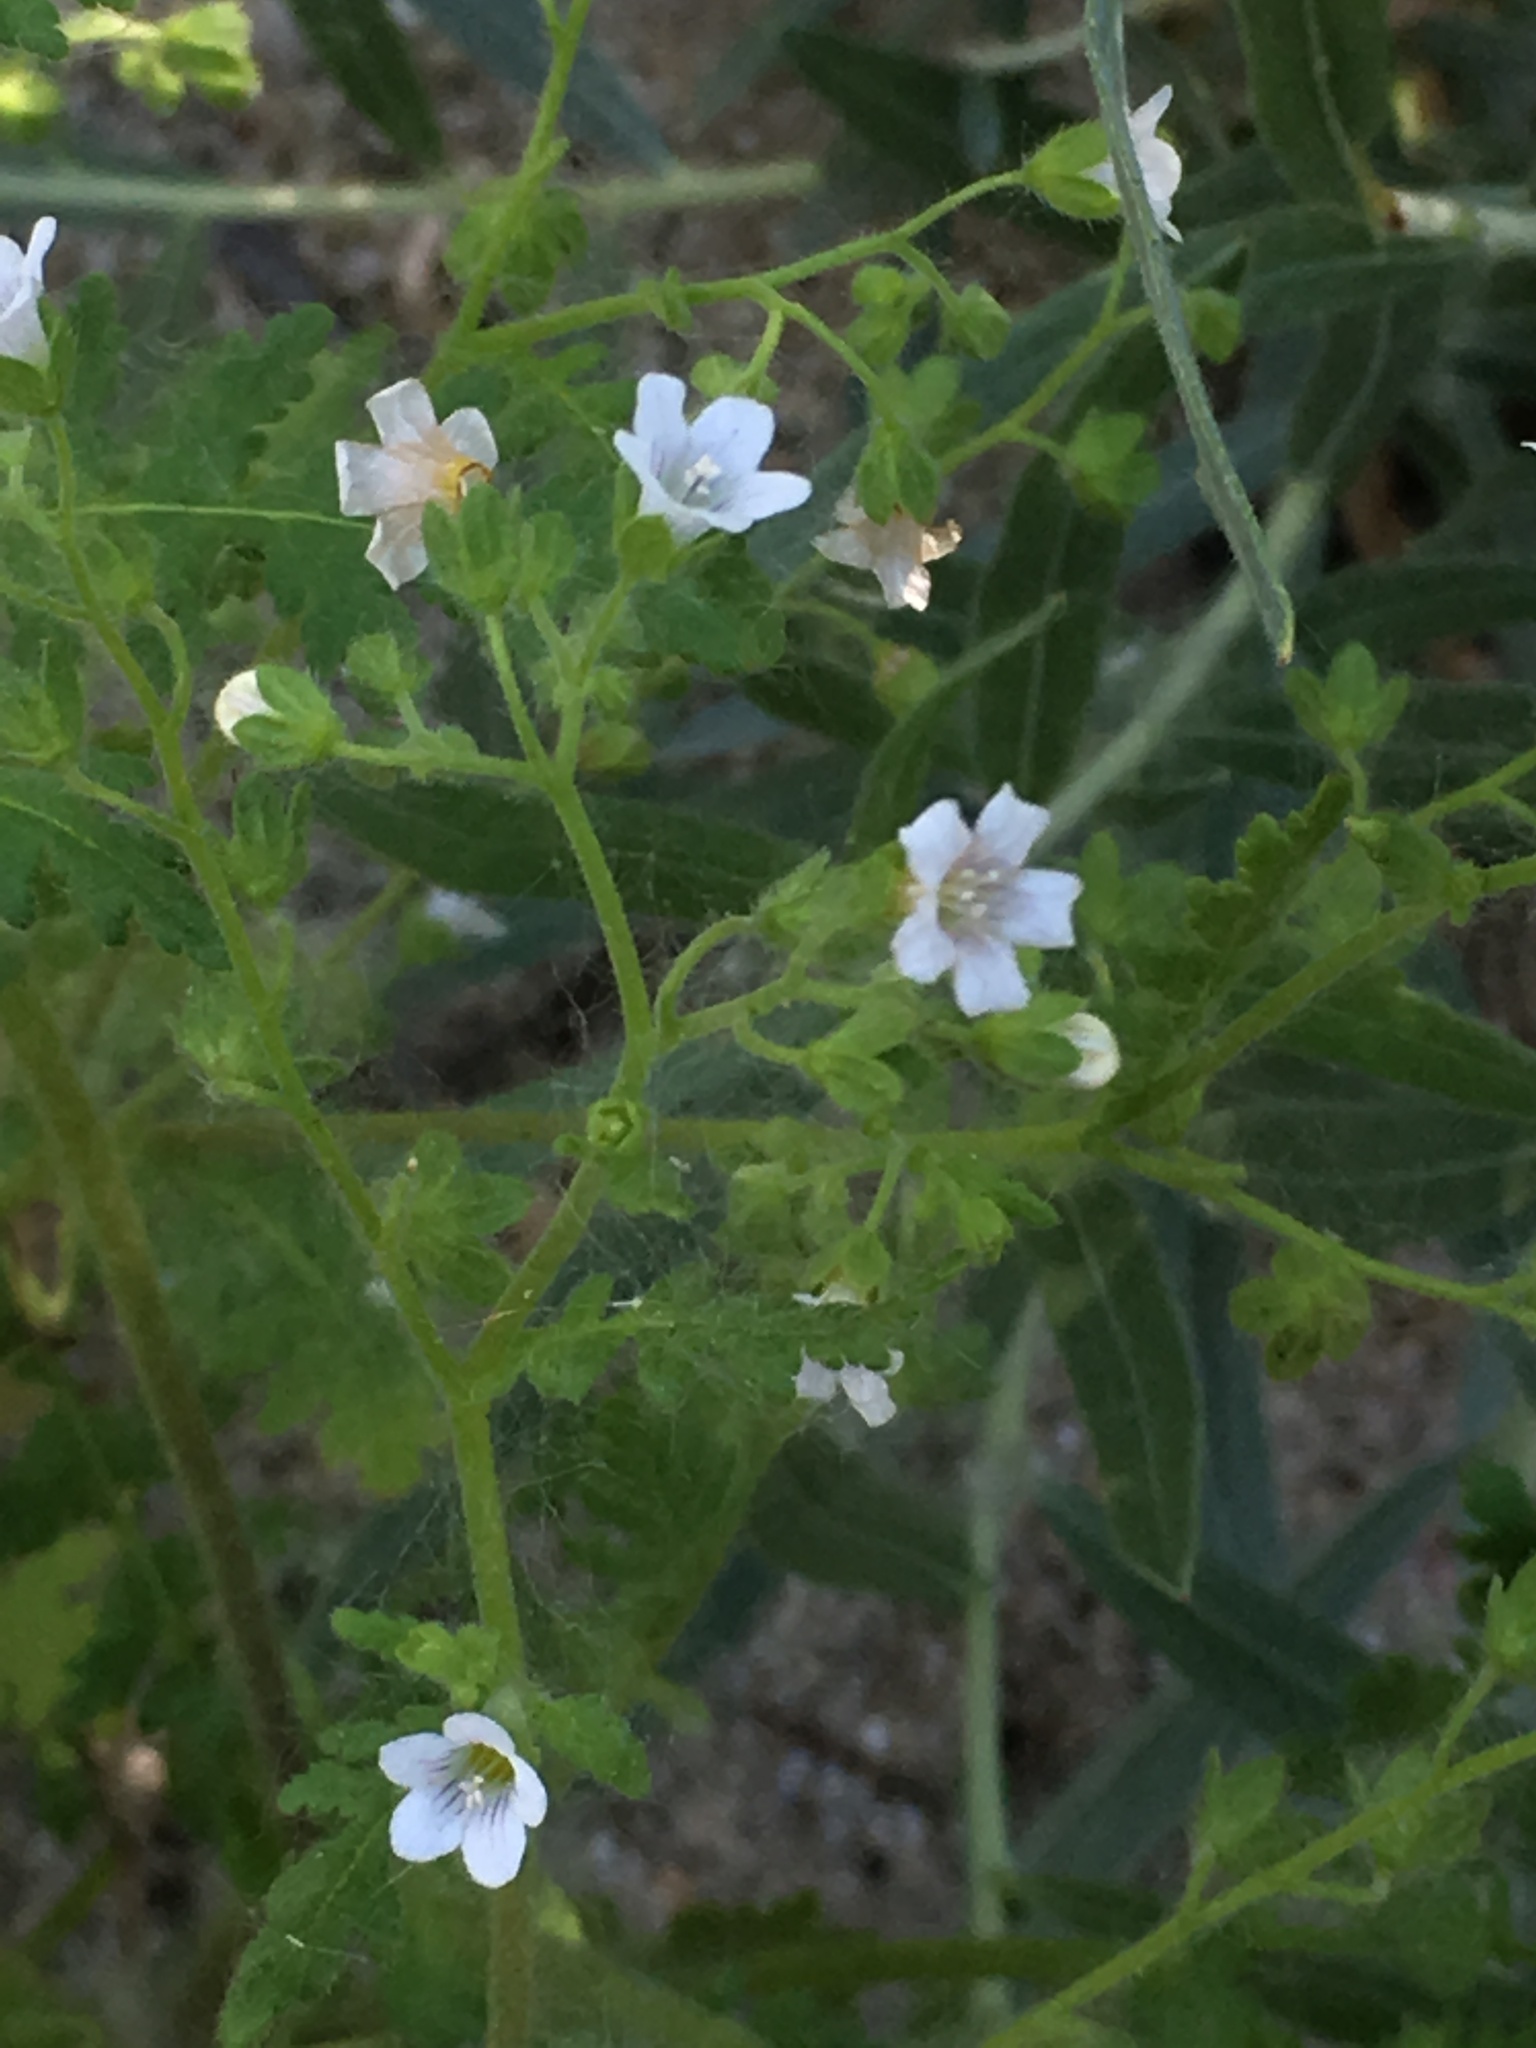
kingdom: Plantae
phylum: Tracheophyta
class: Magnoliopsida
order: Boraginales
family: Hydrophyllaceae
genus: Eucrypta
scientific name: Eucrypta chrysanthemifolia
